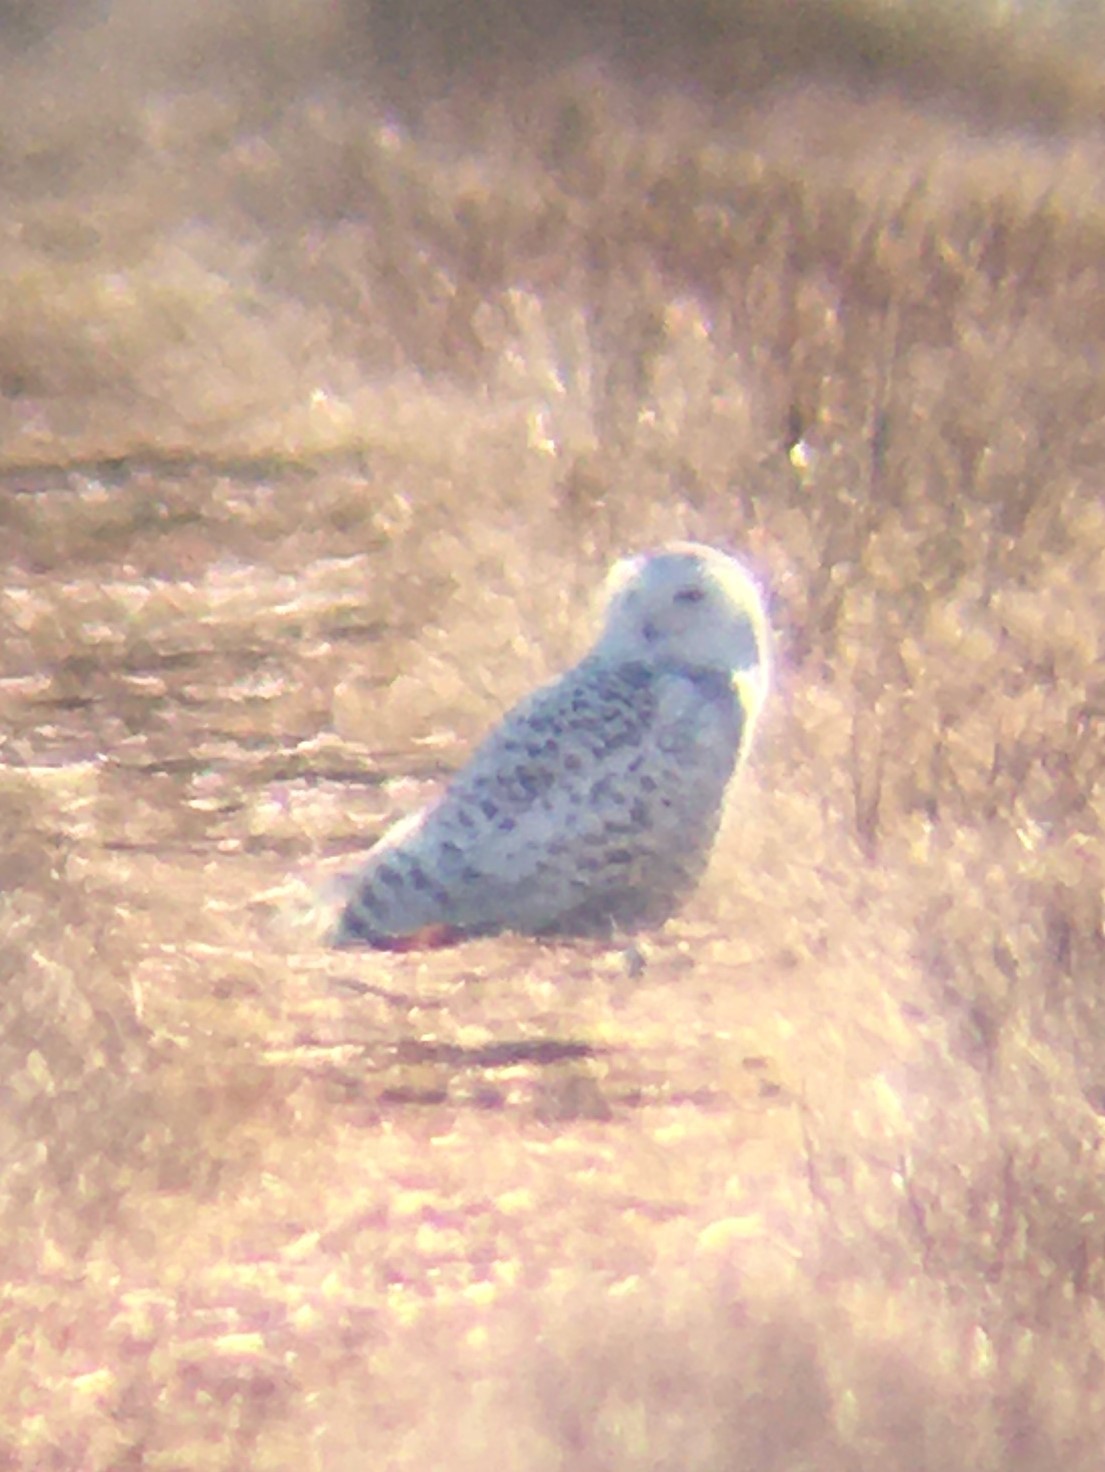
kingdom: Animalia
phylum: Chordata
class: Aves
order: Strigiformes
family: Strigidae
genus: Bubo
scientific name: Bubo scandiacus
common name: Snowy owl
